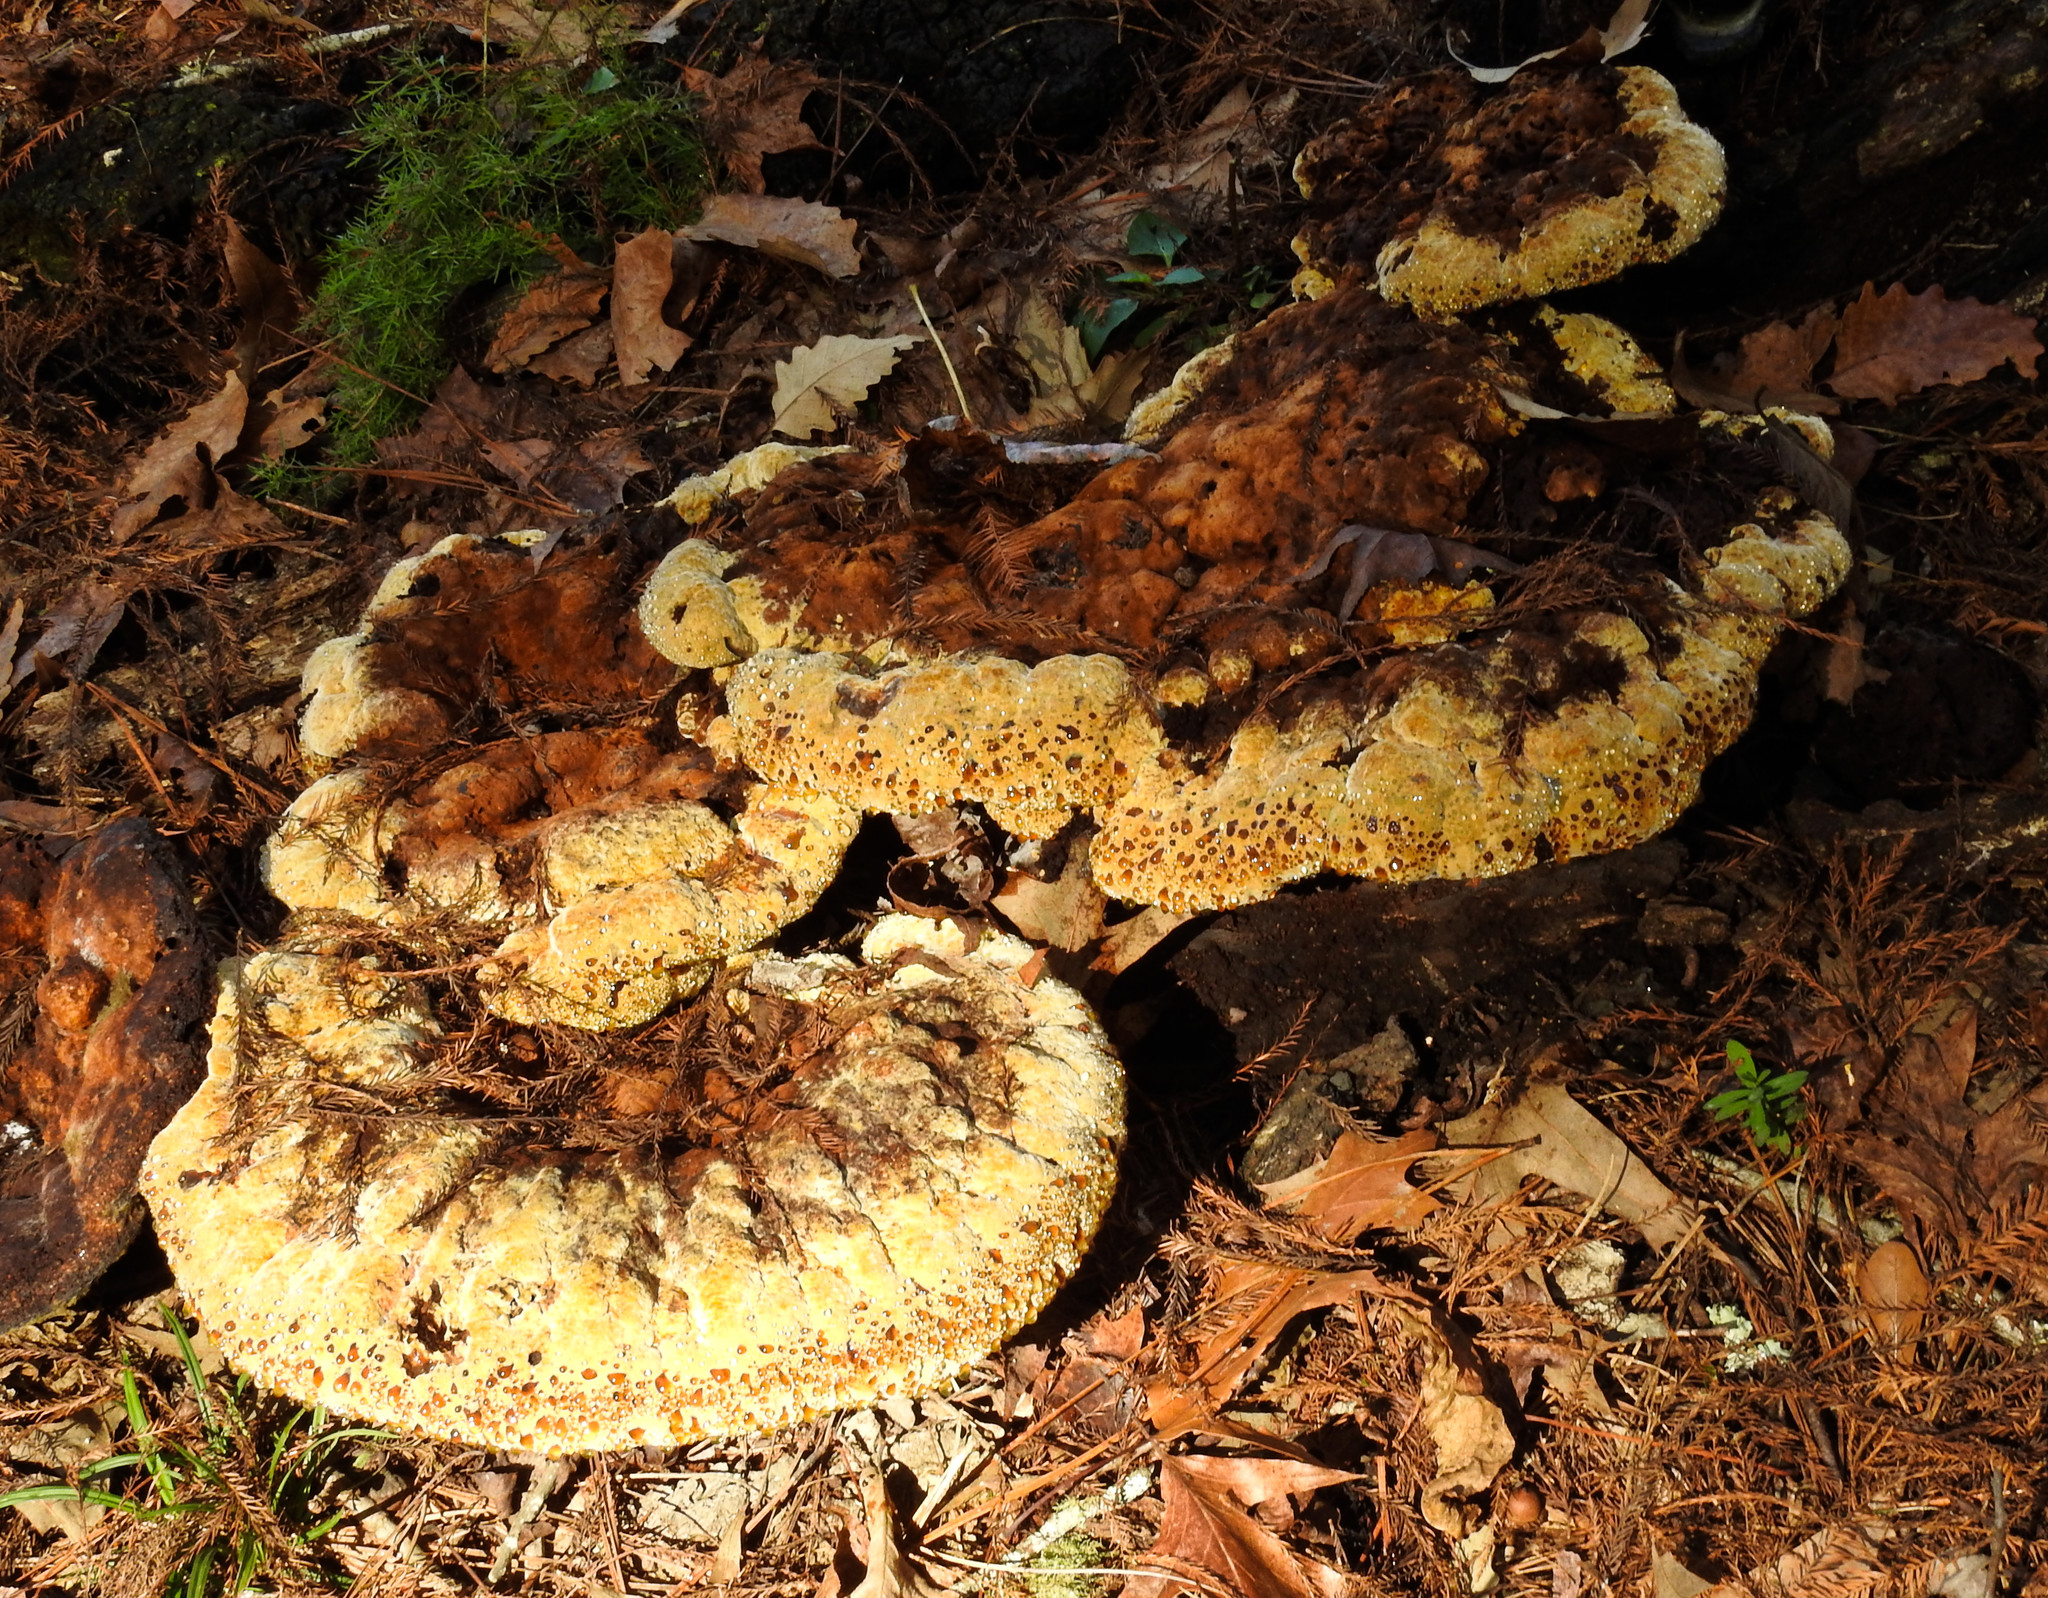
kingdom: Fungi
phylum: Basidiomycota
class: Agaricomycetes
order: Hymenochaetales
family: Hymenochaetaceae
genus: Pseudoinonotus
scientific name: Pseudoinonotus dryadeus
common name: Oak bracket
